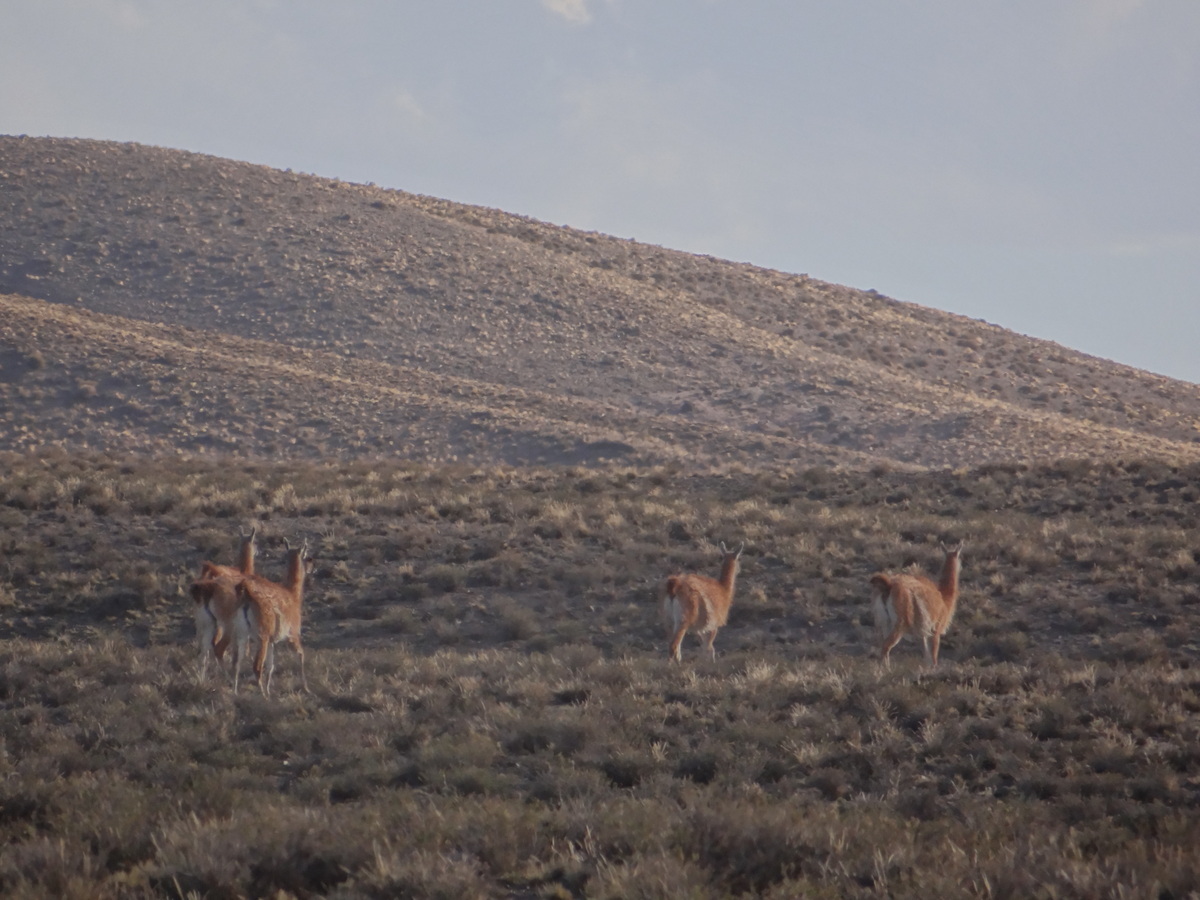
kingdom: Animalia
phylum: Chordata
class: Mammalia
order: Artiodactyla
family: Camelidae
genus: Lama
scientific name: Lama glama
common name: Llama
